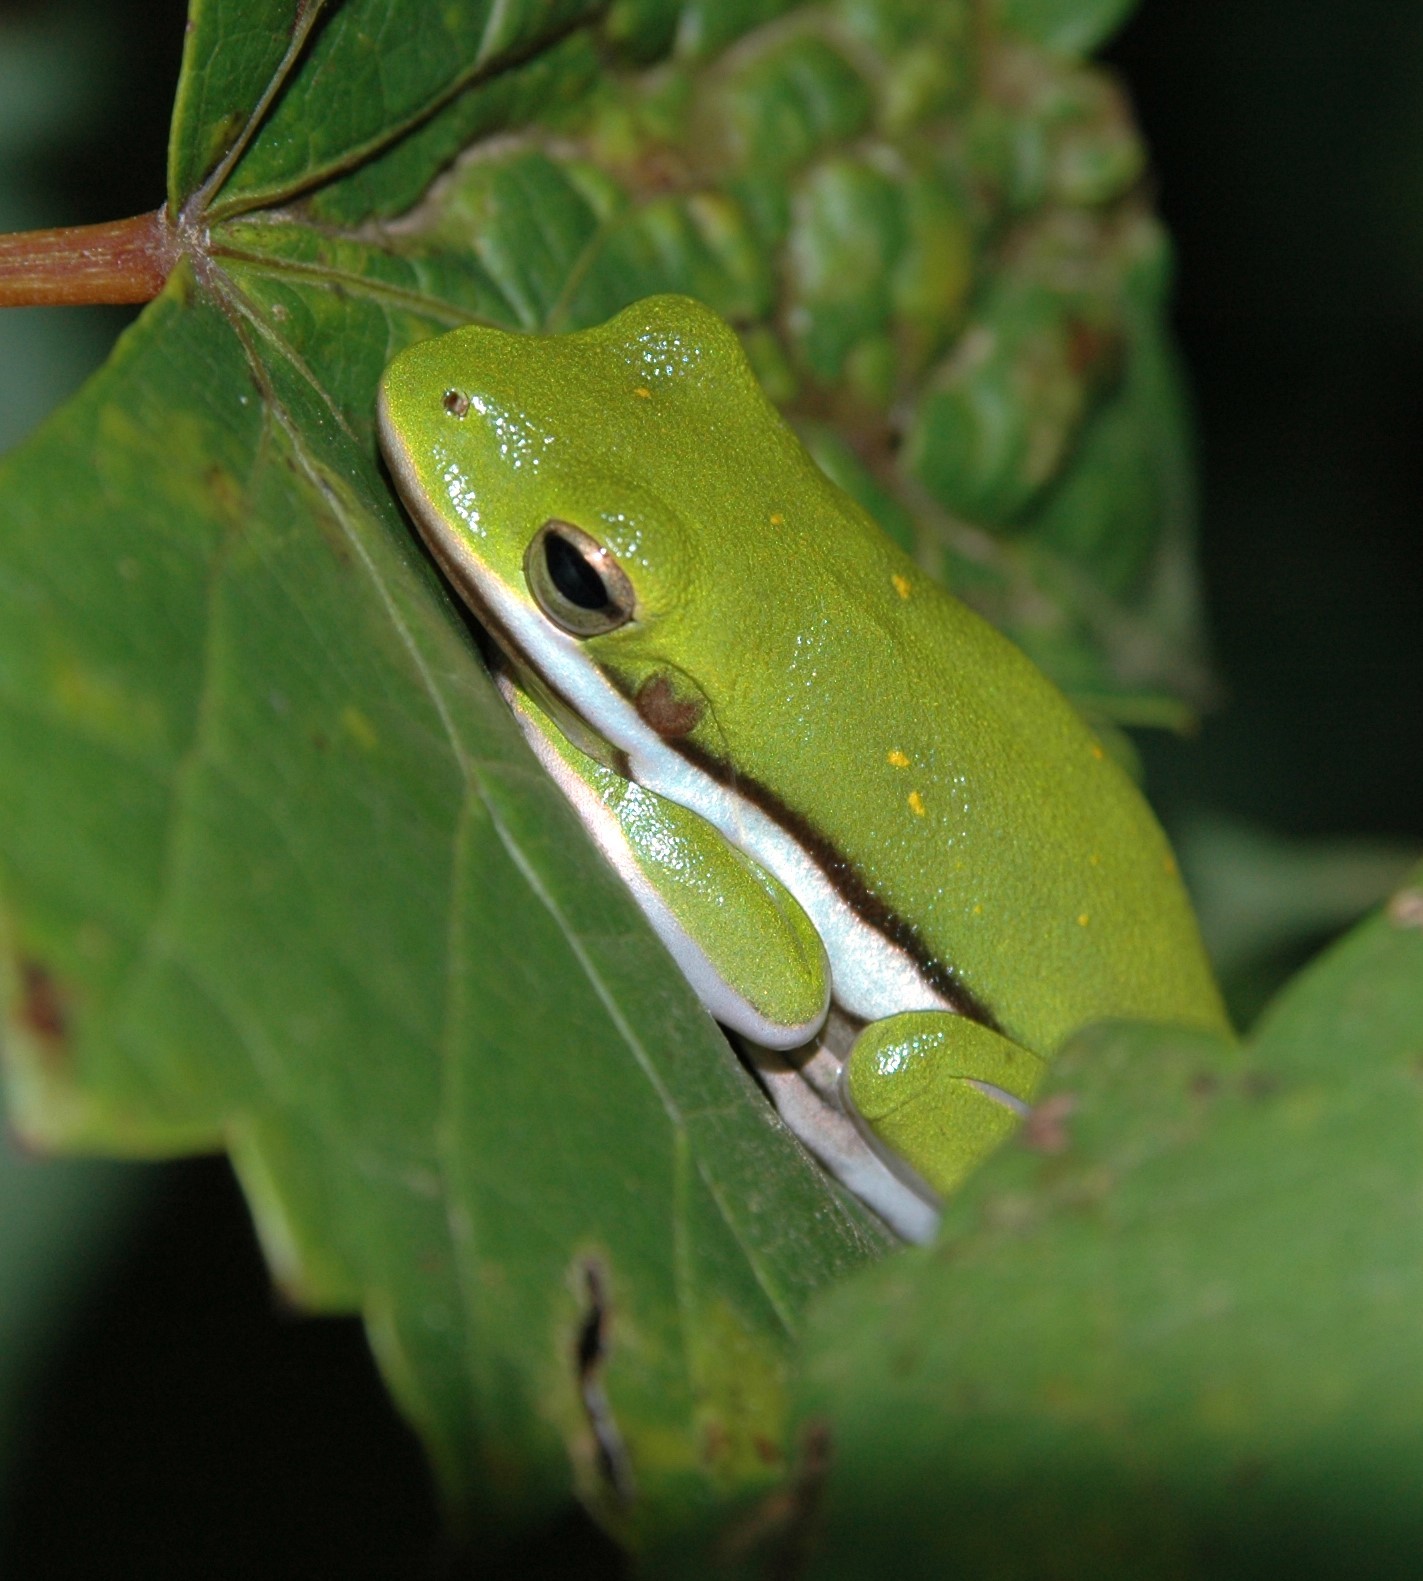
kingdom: Animalia
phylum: Chordata
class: Amphibia
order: Anura
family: Hylidae
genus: Dryophytes
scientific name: Dryophytes cinereus
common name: Green treefrog
